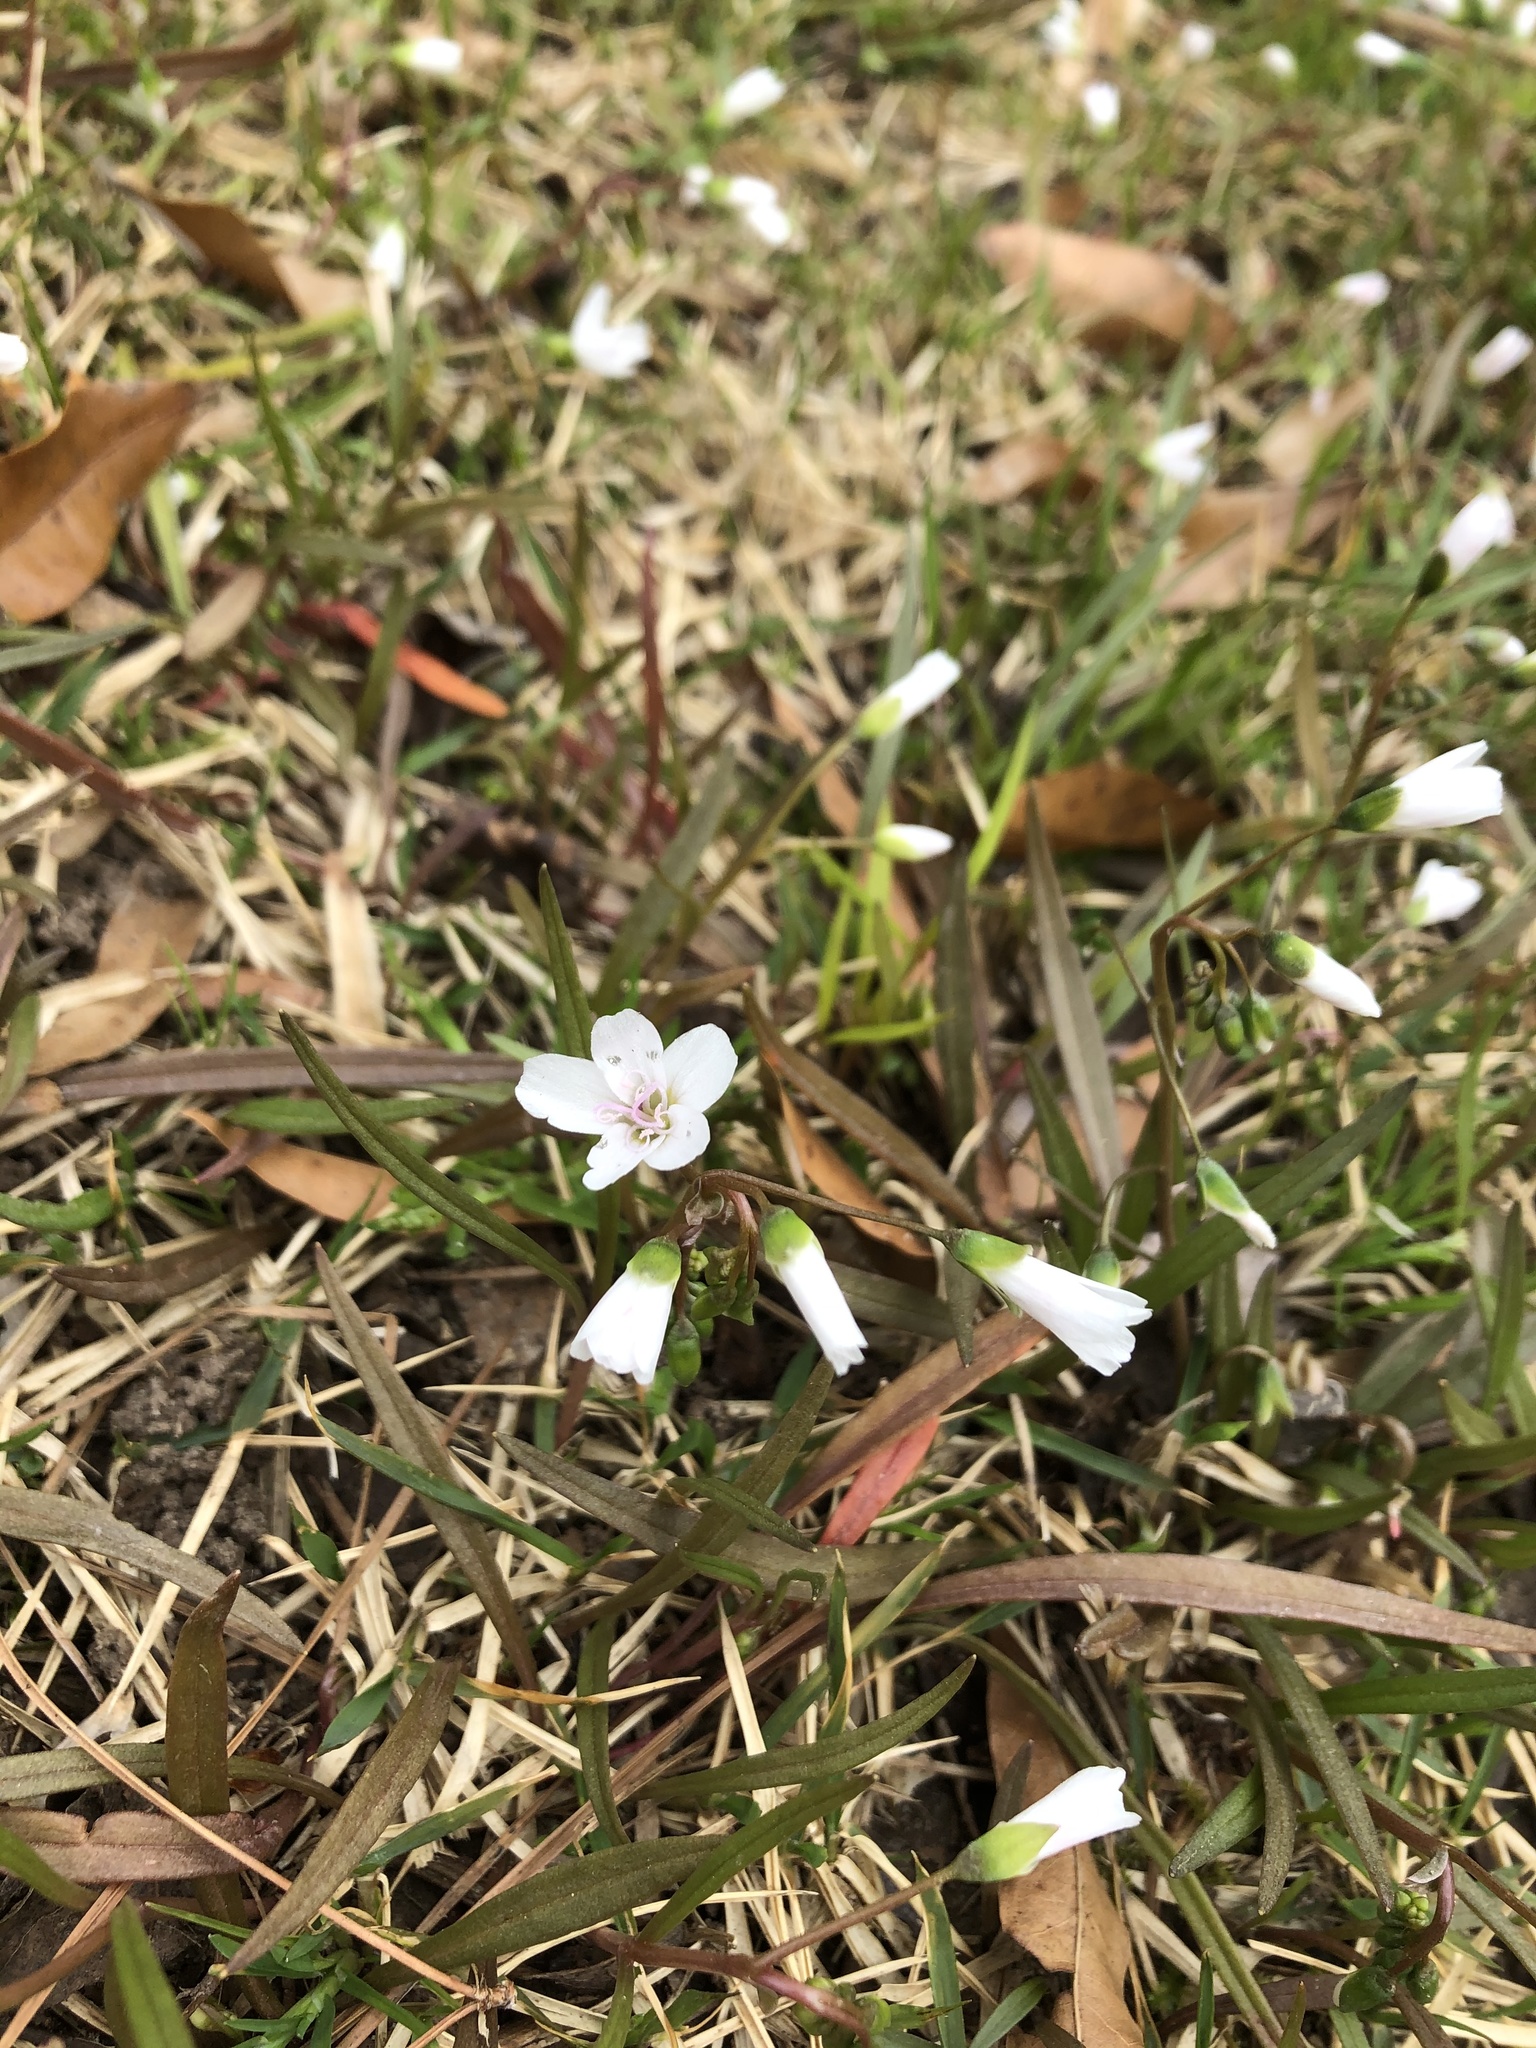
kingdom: Plantae
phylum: Tracheophyta
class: Magnoliopsida
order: Caryophyllales
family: Montiaceae
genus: Claytonia
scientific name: Claytonia virginica
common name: Virginia springbeauty
